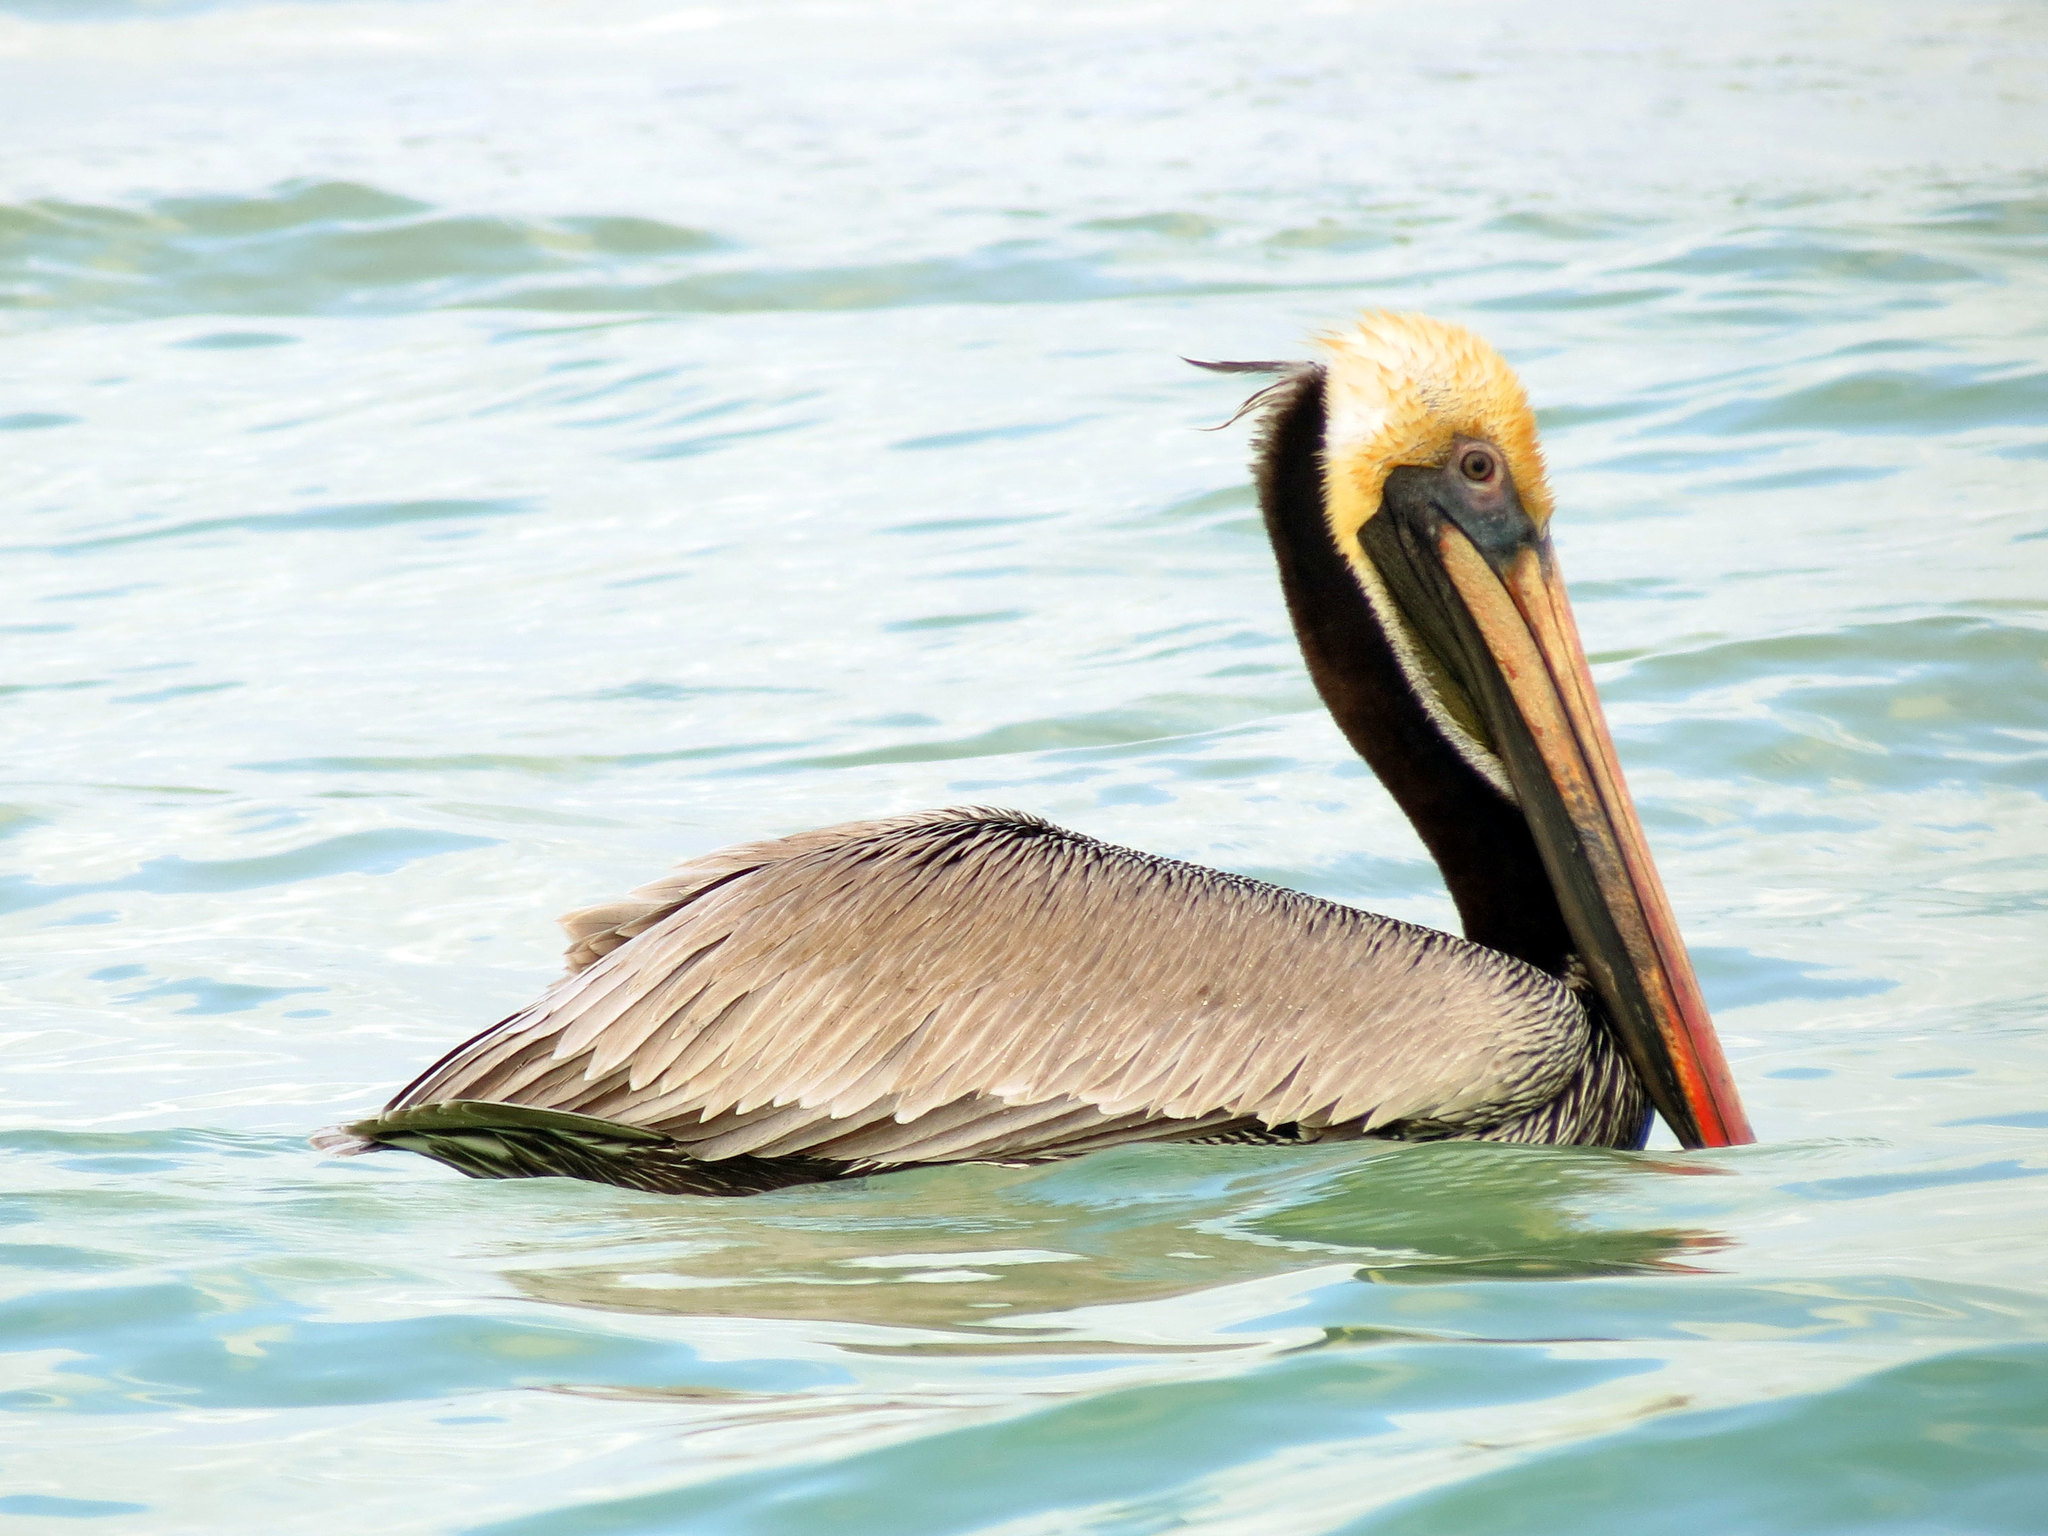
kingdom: Animalia
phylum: Chordata
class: Aves
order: Pelecaniformes
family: Pelecanidae
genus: Pelecanus
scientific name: Pelecanus occidentalis
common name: Brown pelican
